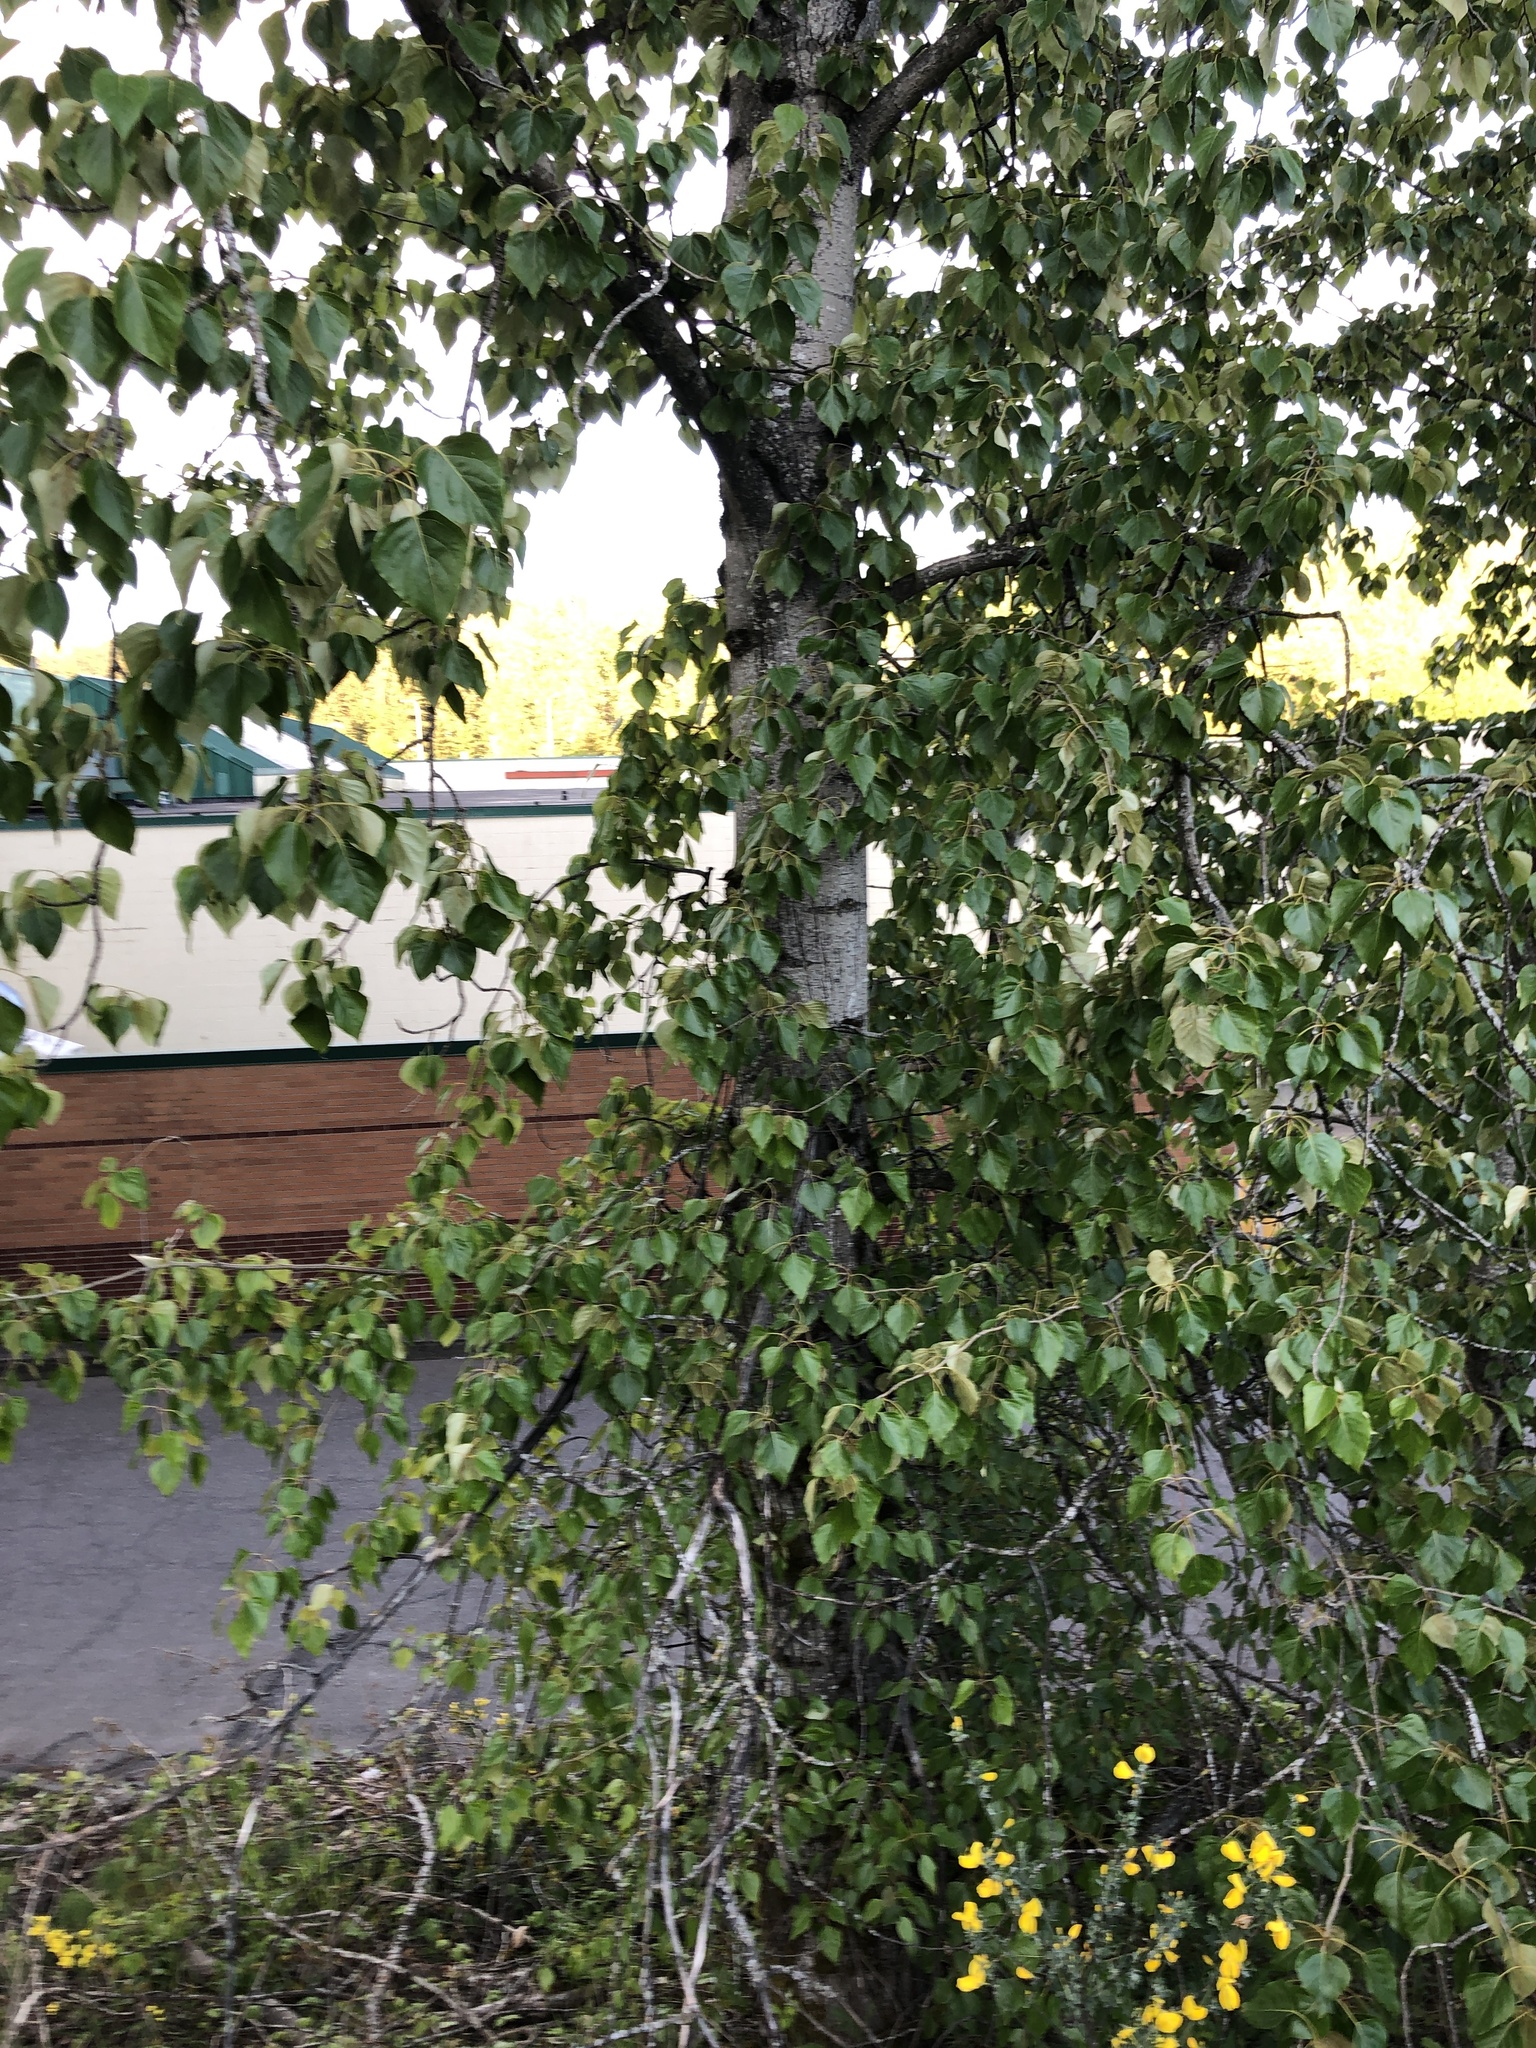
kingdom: Plantae
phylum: Tracheophyta
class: Magnoliopsida
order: Malpighiales
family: Salicaceae
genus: Populus
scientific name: Populus trichocarpa
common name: Black cottonwood
